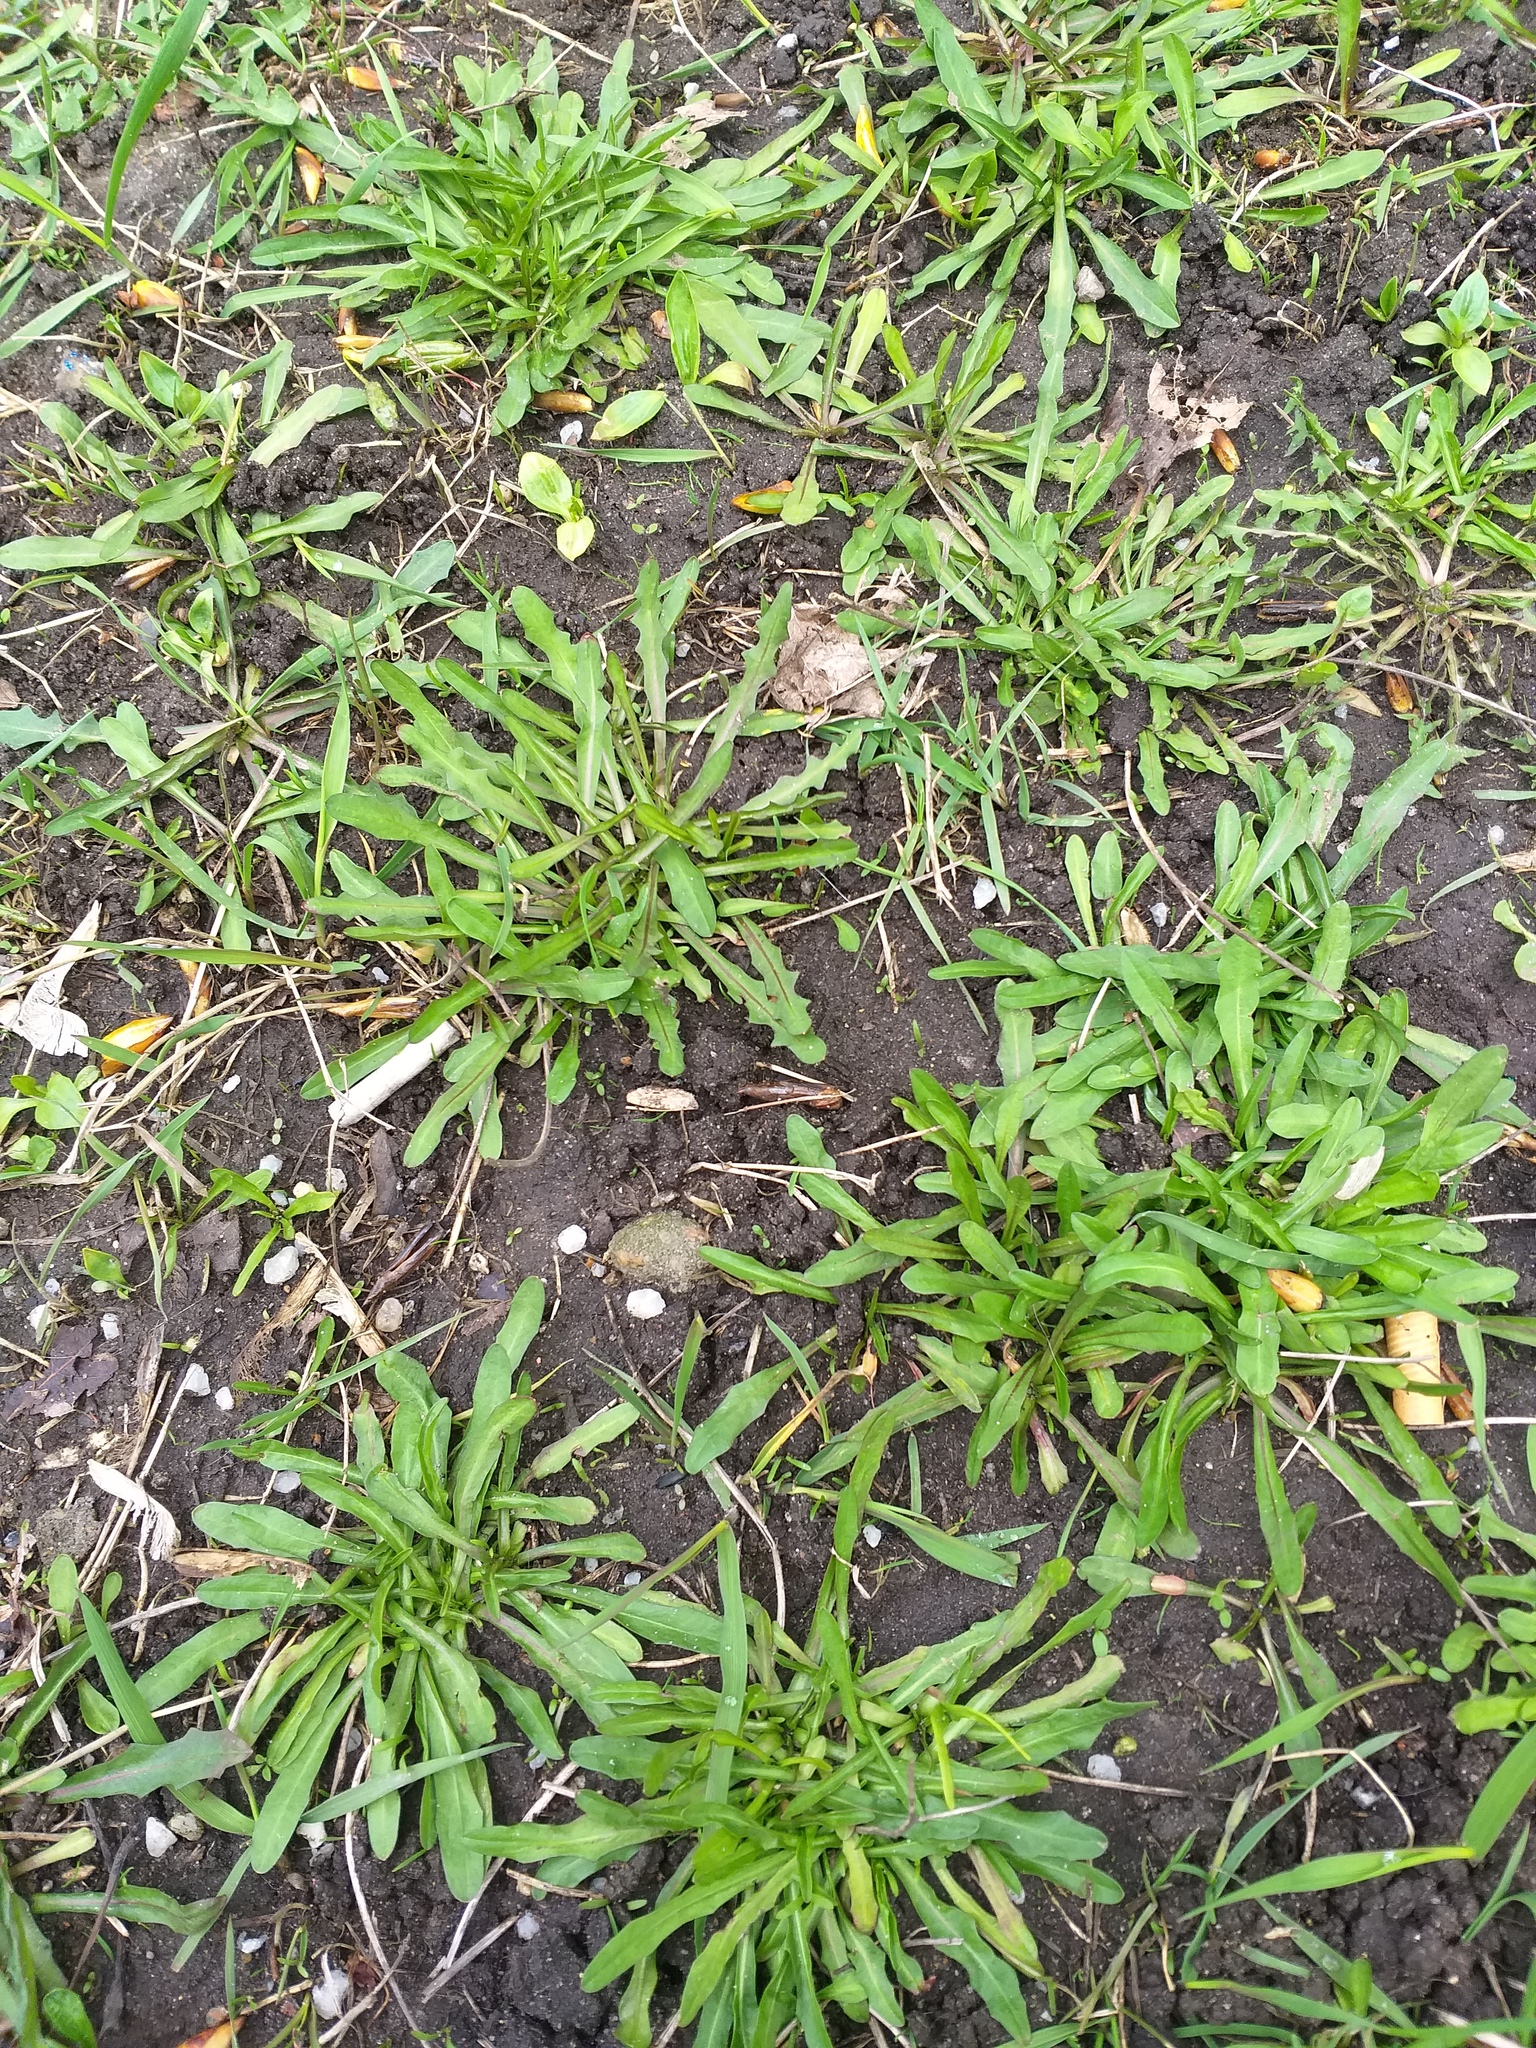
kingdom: Plantae
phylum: Tracheophyta
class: Magnoliopsida
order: Asterales
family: Asteraceae
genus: Scorzoneroides
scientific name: Scorzoneroides autumnalis
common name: Autumn hawkbit
